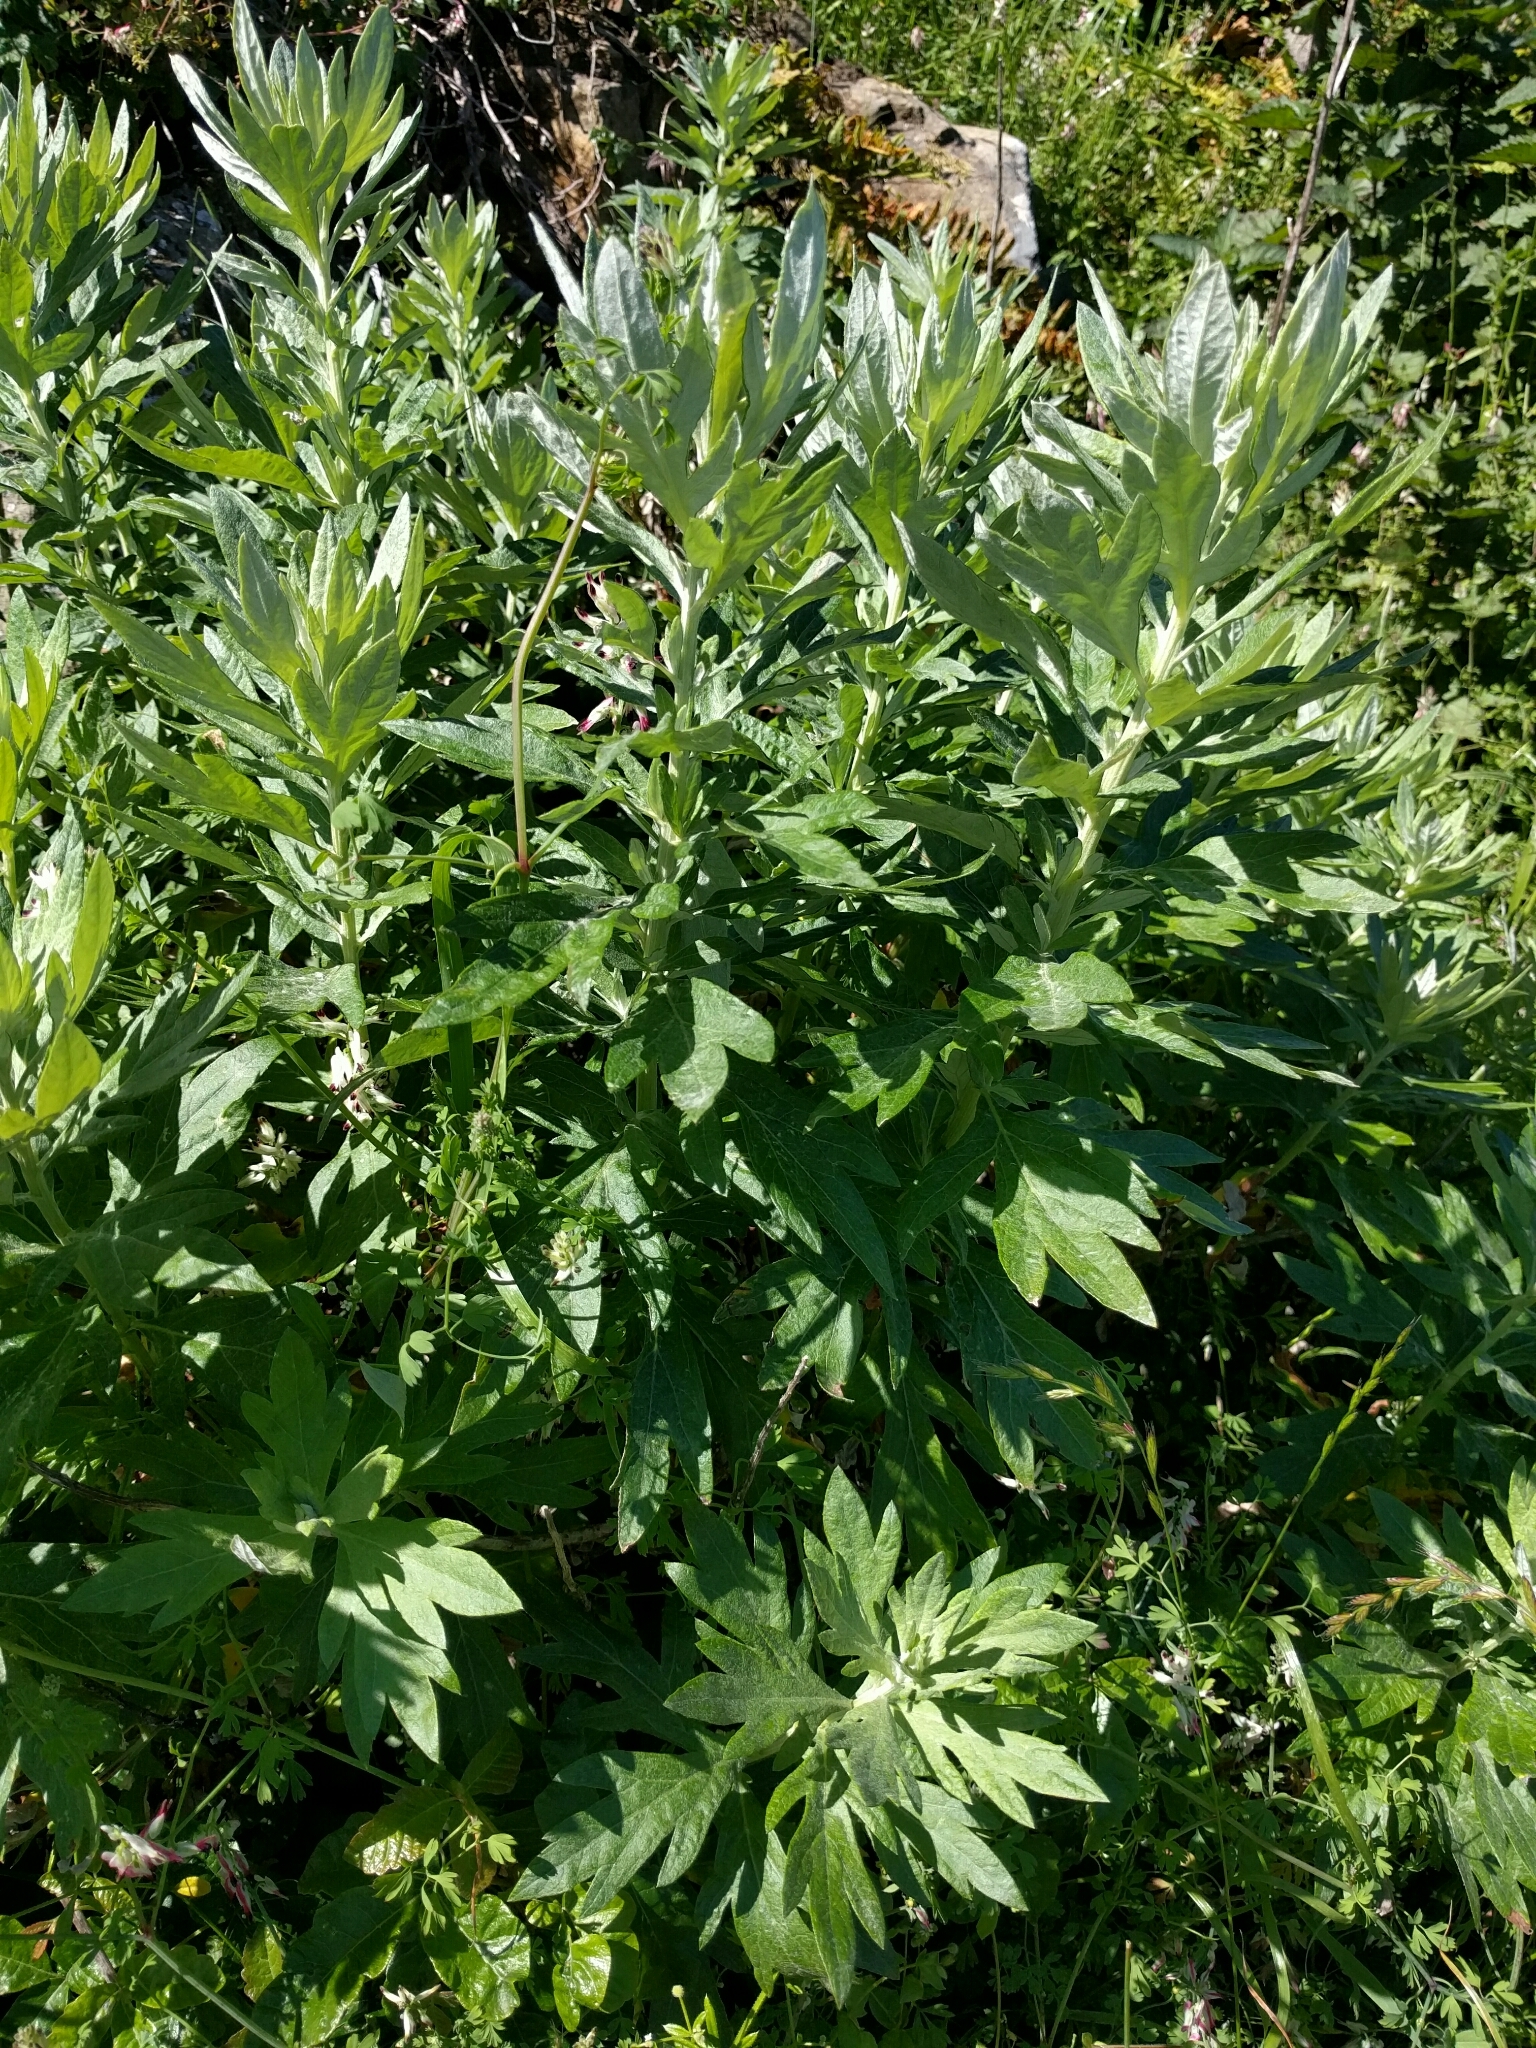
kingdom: Plantae
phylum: Tracheophyta
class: Magnoliopsida
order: Asterales
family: Asteraceae
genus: Artemisia
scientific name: Artemisia douglasiana
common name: Northwest mugwort
